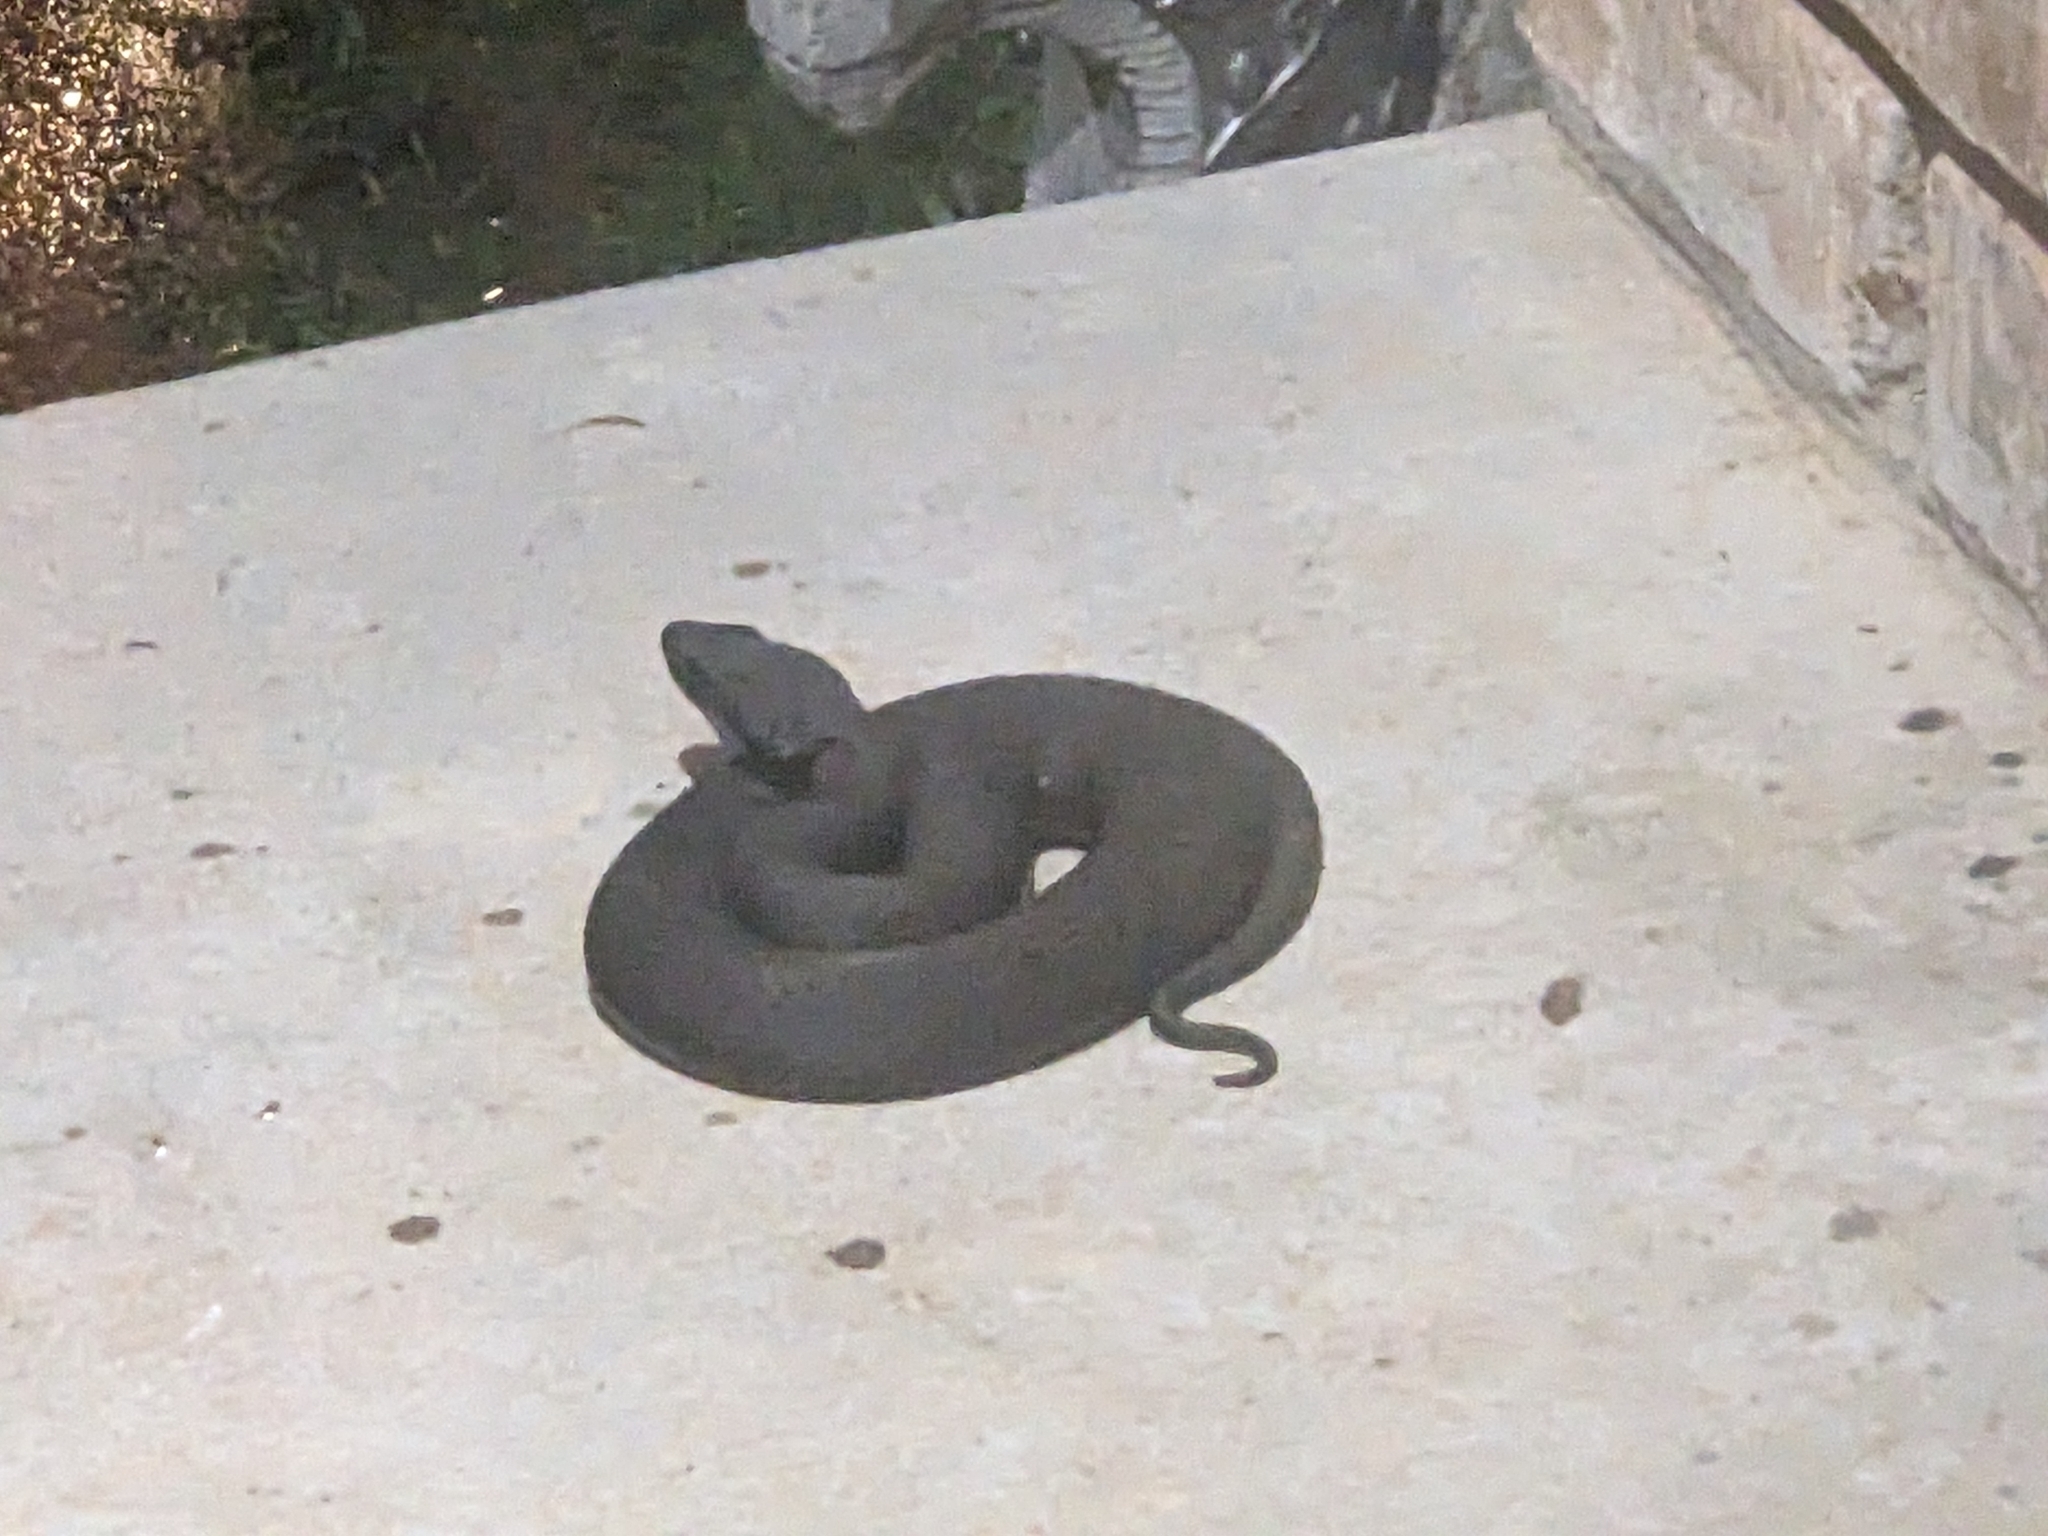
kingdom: Animalia
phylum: Chordata
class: Squamata
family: Viperidae
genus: Agkistrodon
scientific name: Agkistrodon piscivorus
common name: Cottonmouth
